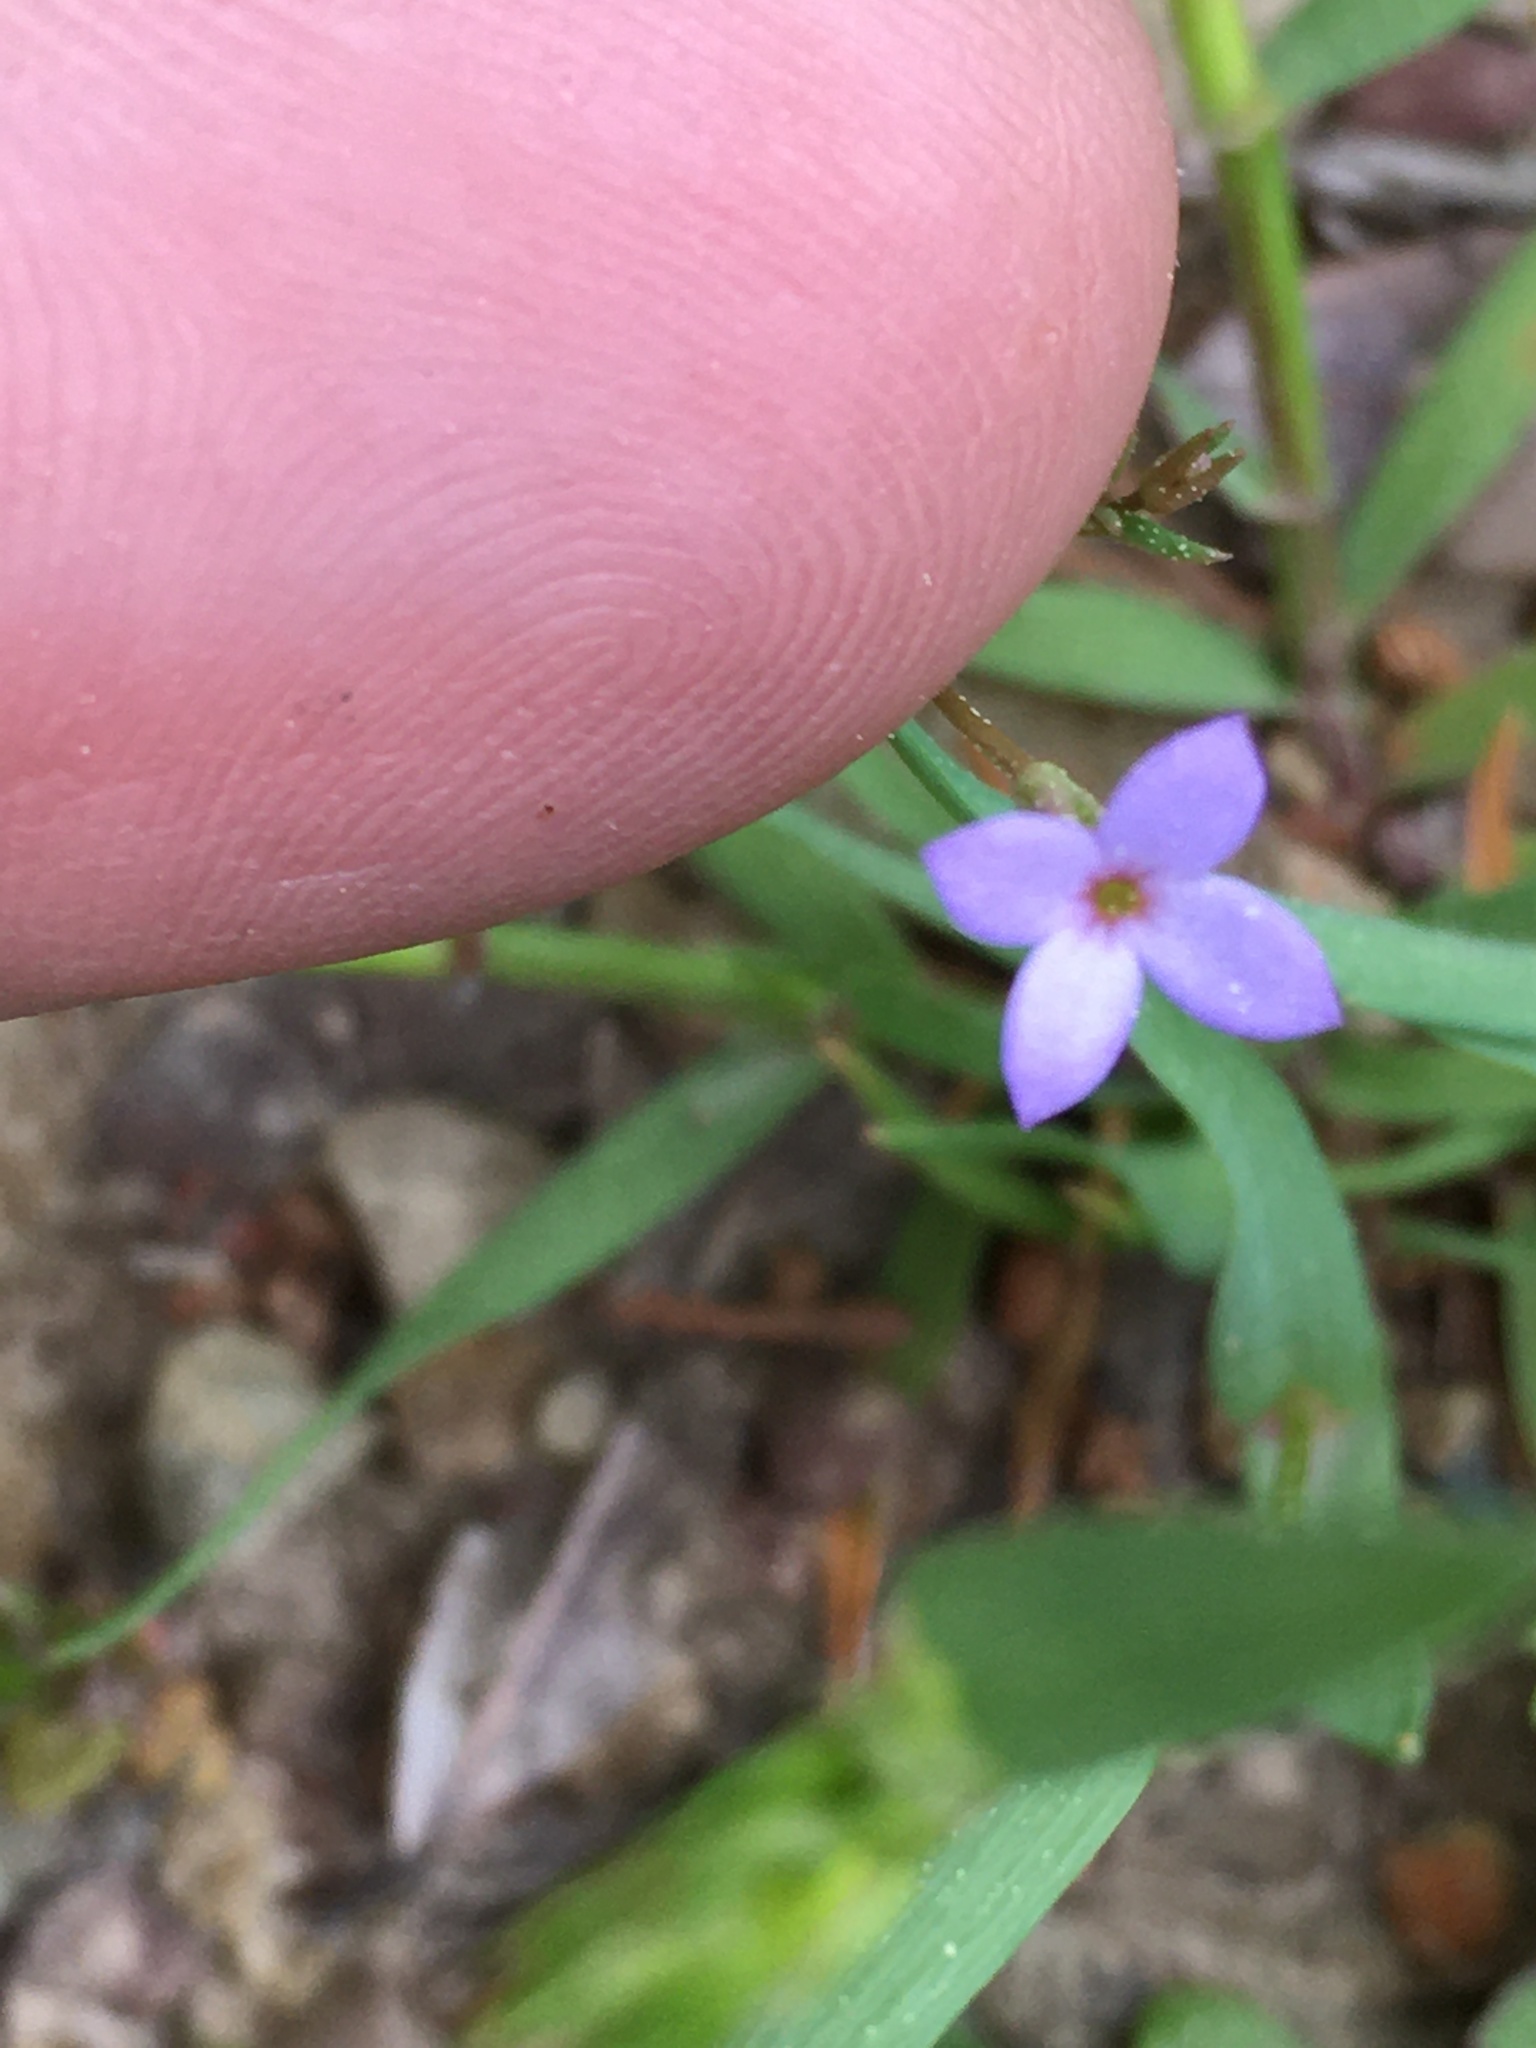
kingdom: Plantae
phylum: Tracheophyta
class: Magnoliopsida
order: Gentianales
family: Rubiaceae
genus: Houstonia
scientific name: Houstonia pusilla
